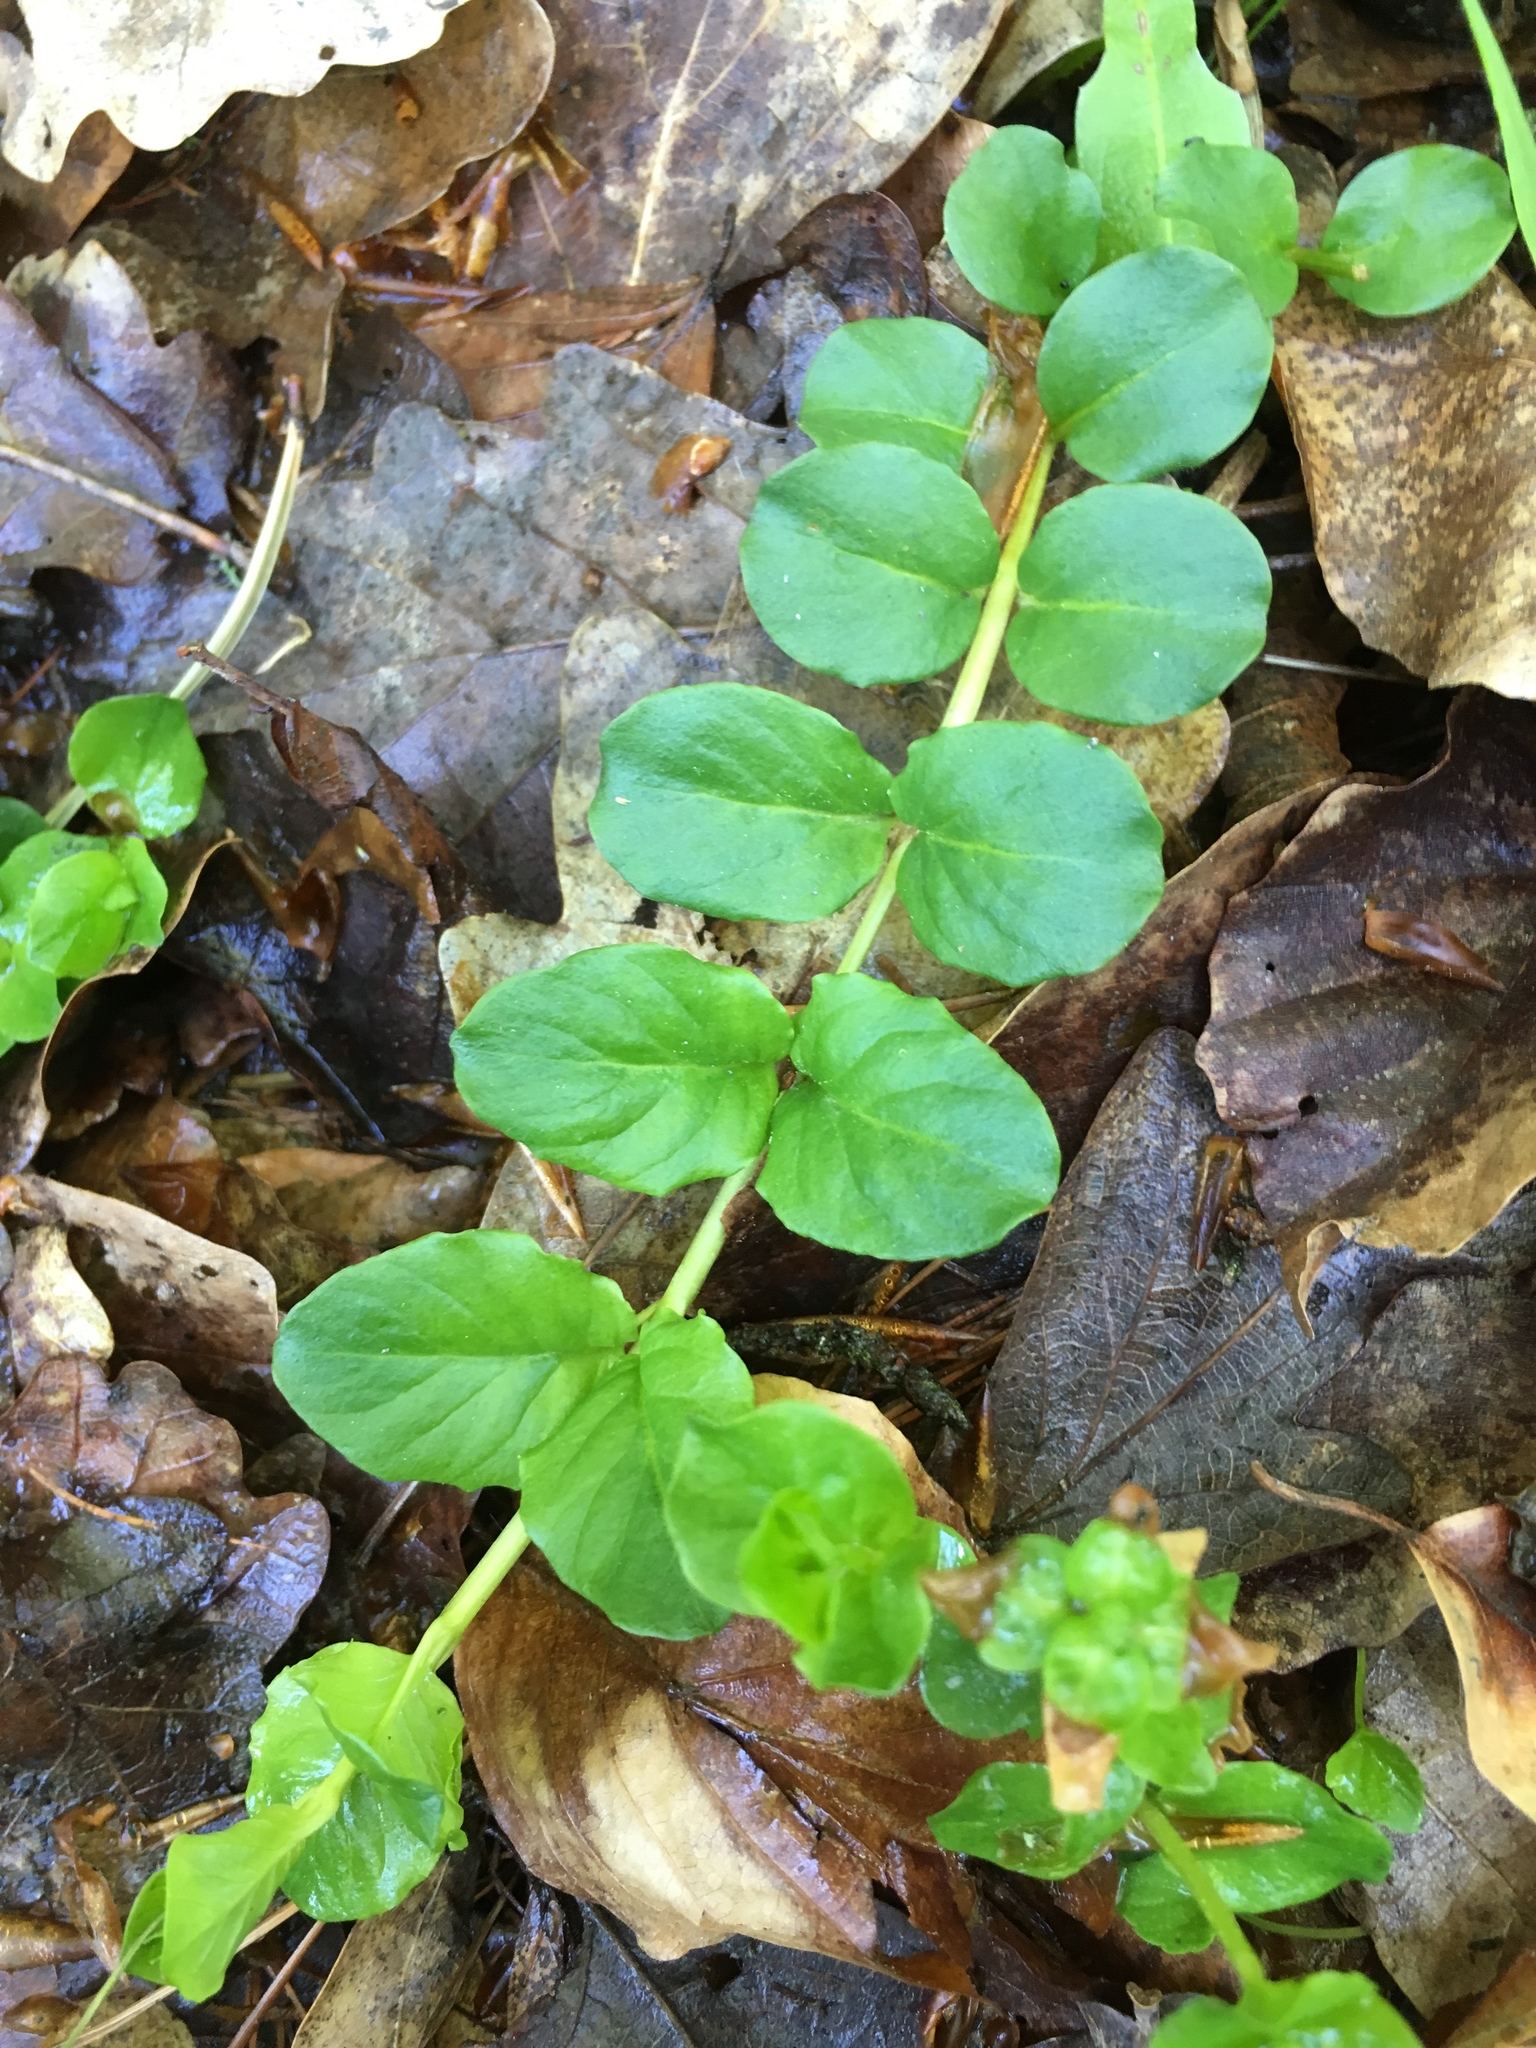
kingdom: Plantae
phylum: Tracheophyta
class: Magnoliopsida
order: Ericales
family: Primulaceae
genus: Lysimachia
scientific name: Lysimachia nummularia
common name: Moneywort
